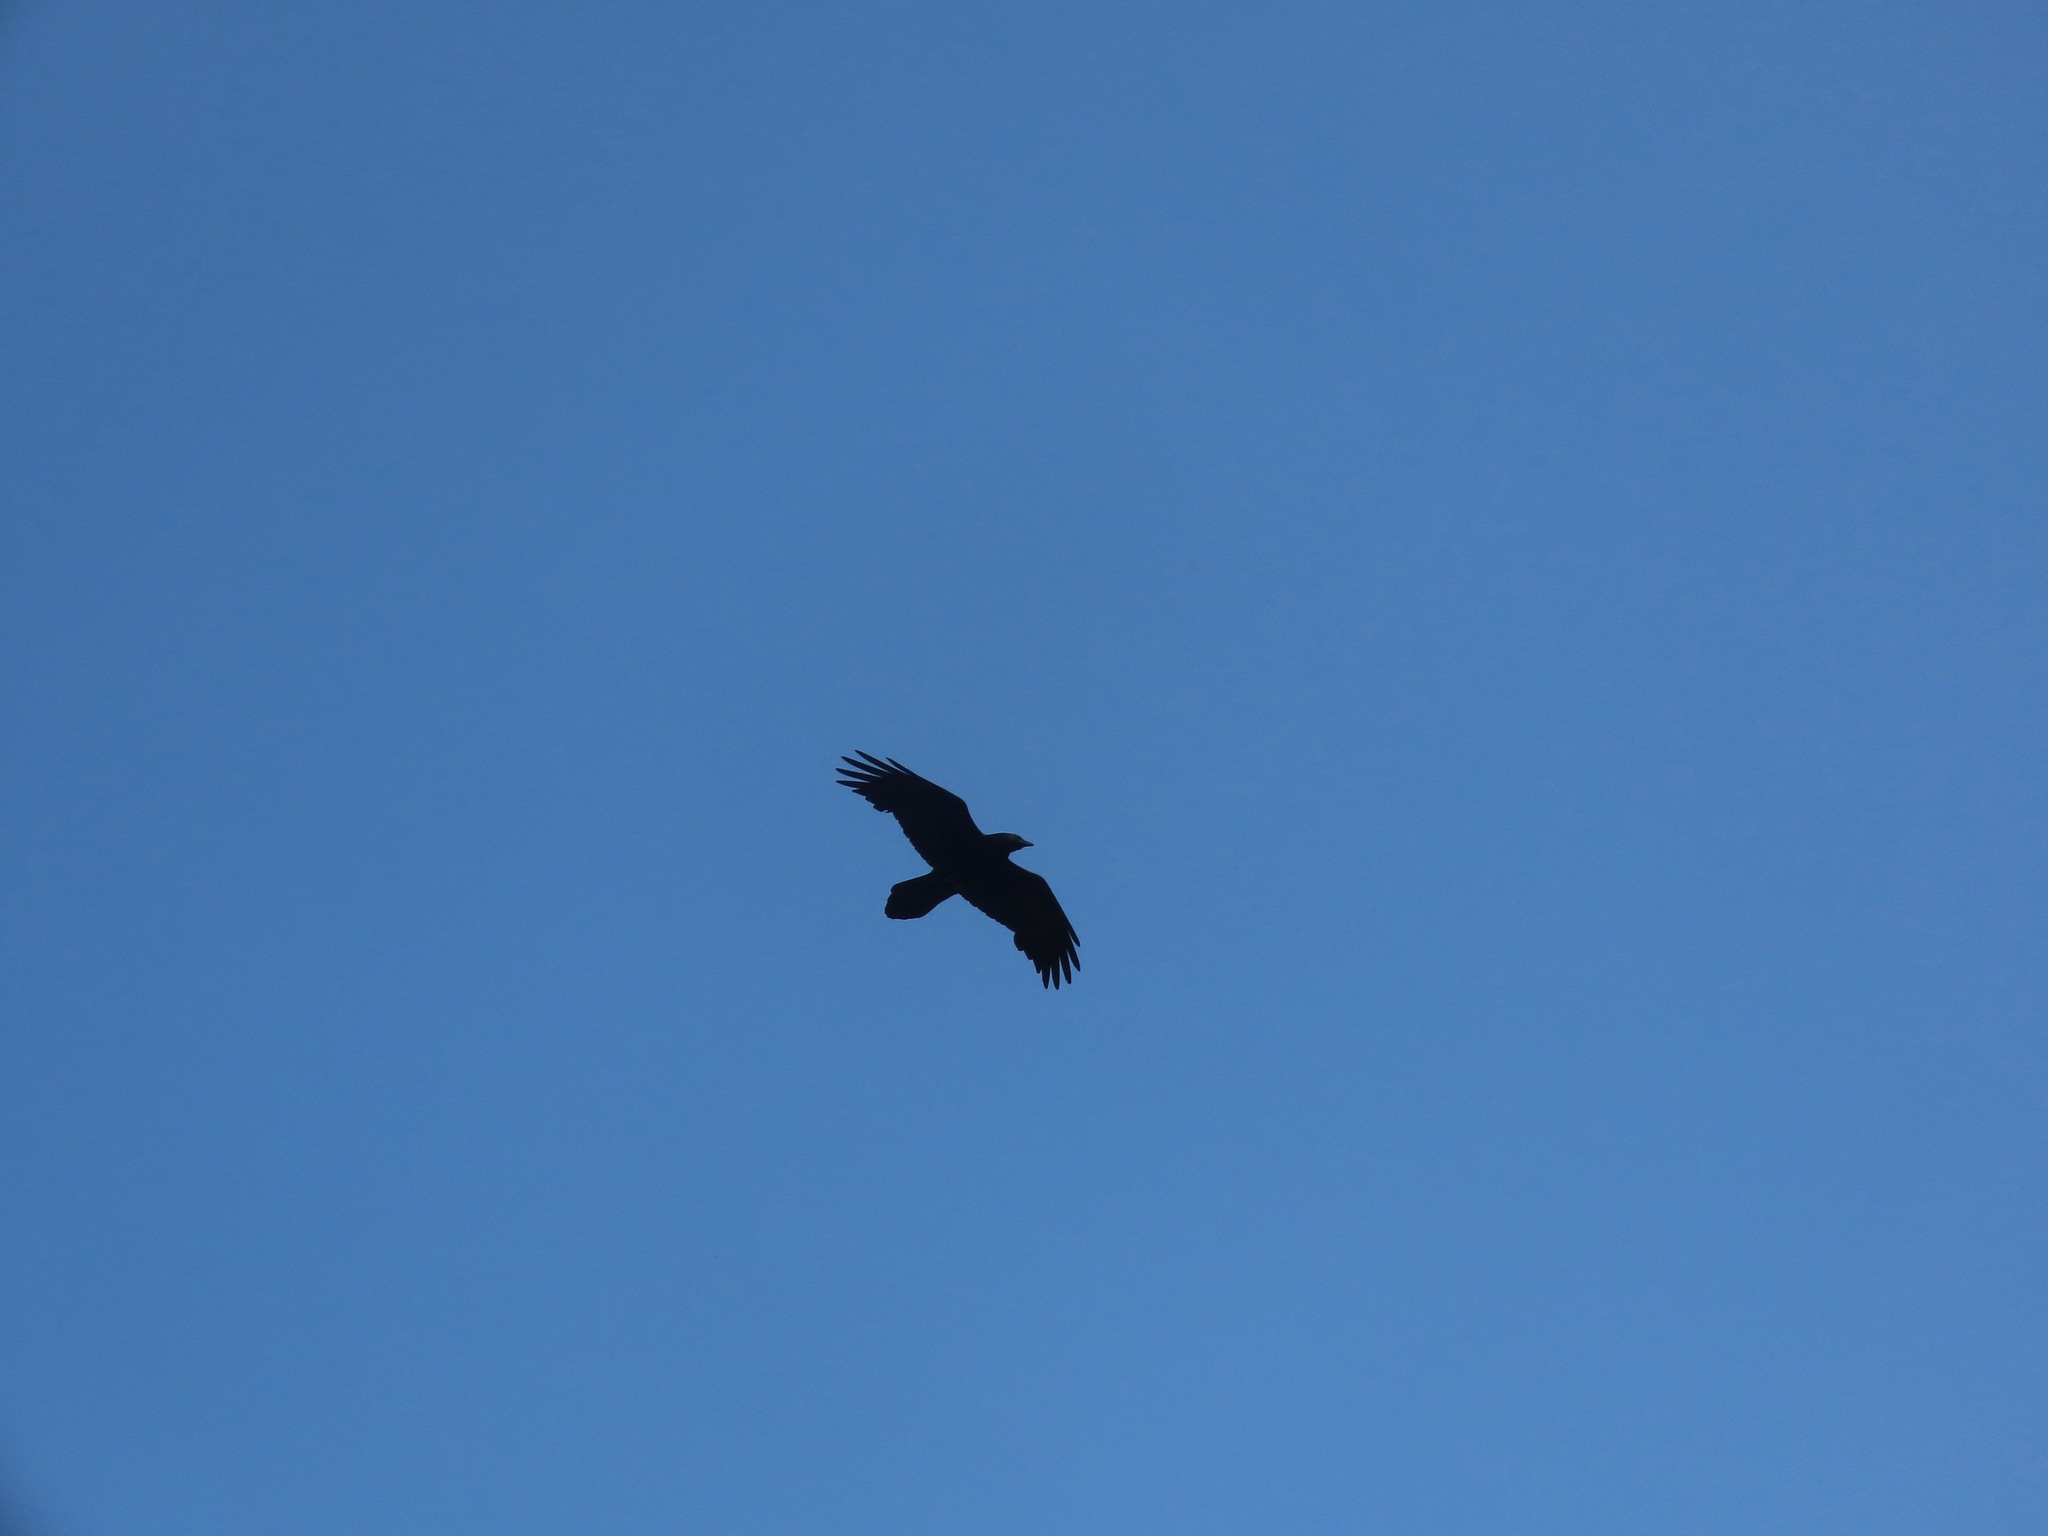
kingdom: Animalia
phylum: Chordata
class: Aves
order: Passeriformes
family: Corvidae
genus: Corvus
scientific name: Corvus corax
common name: Common raven
